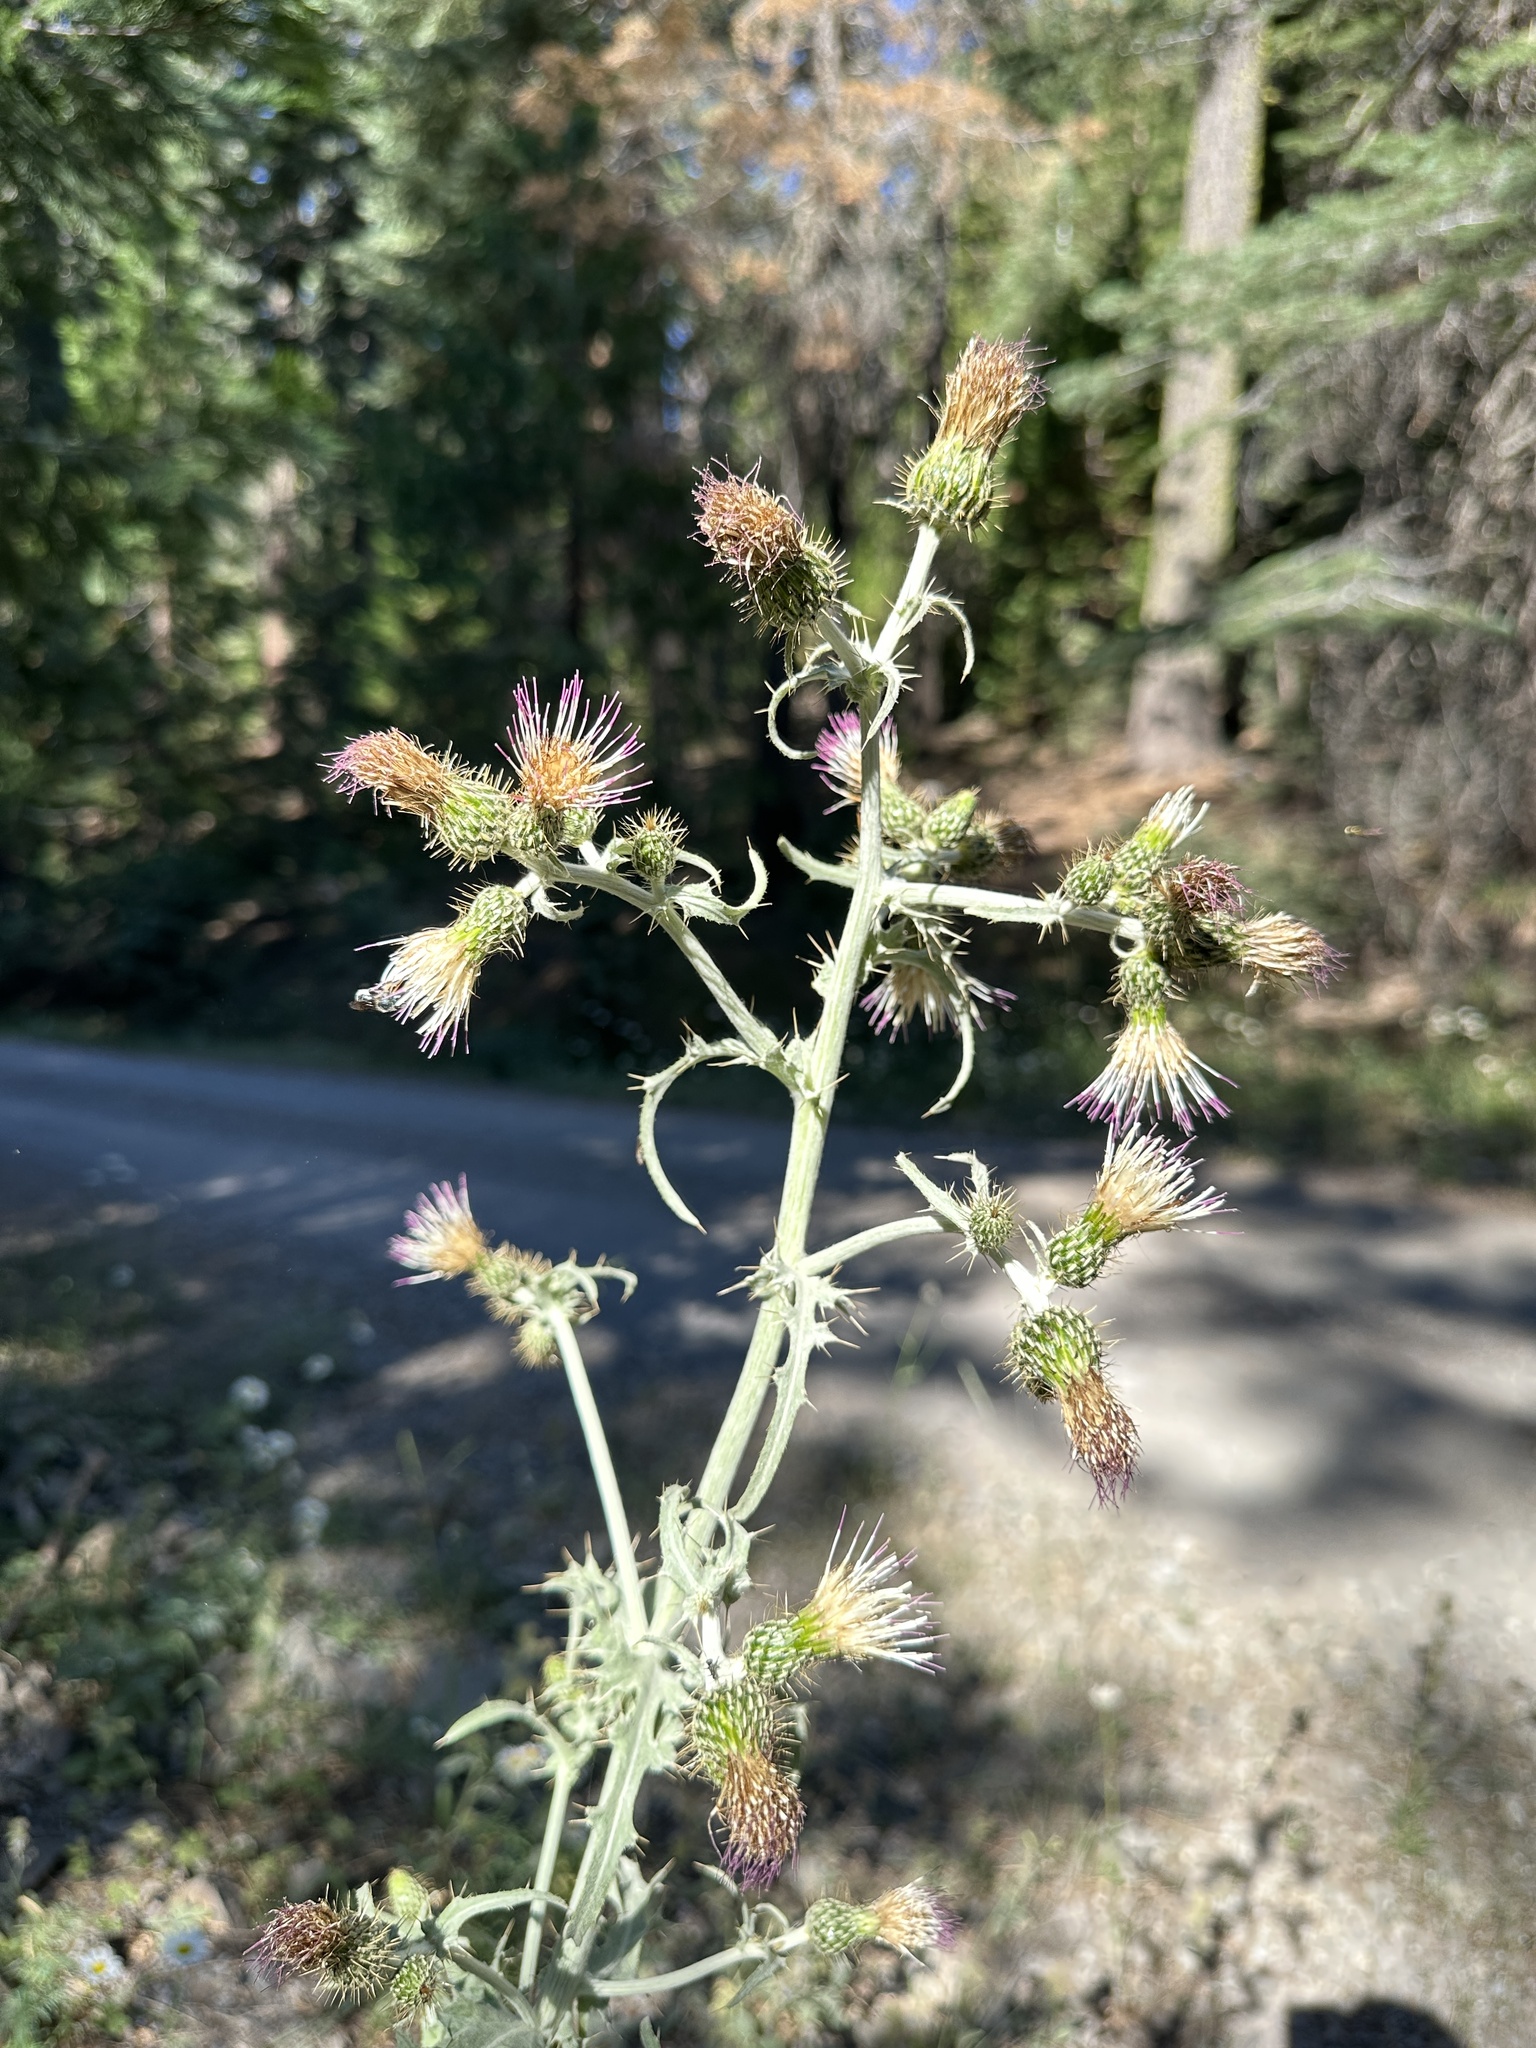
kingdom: Plantae
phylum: Tracheophyta
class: Magnoliopsida
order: Asterales
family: Asteraceae
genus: Cirsium
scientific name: Cirsium douglasii
